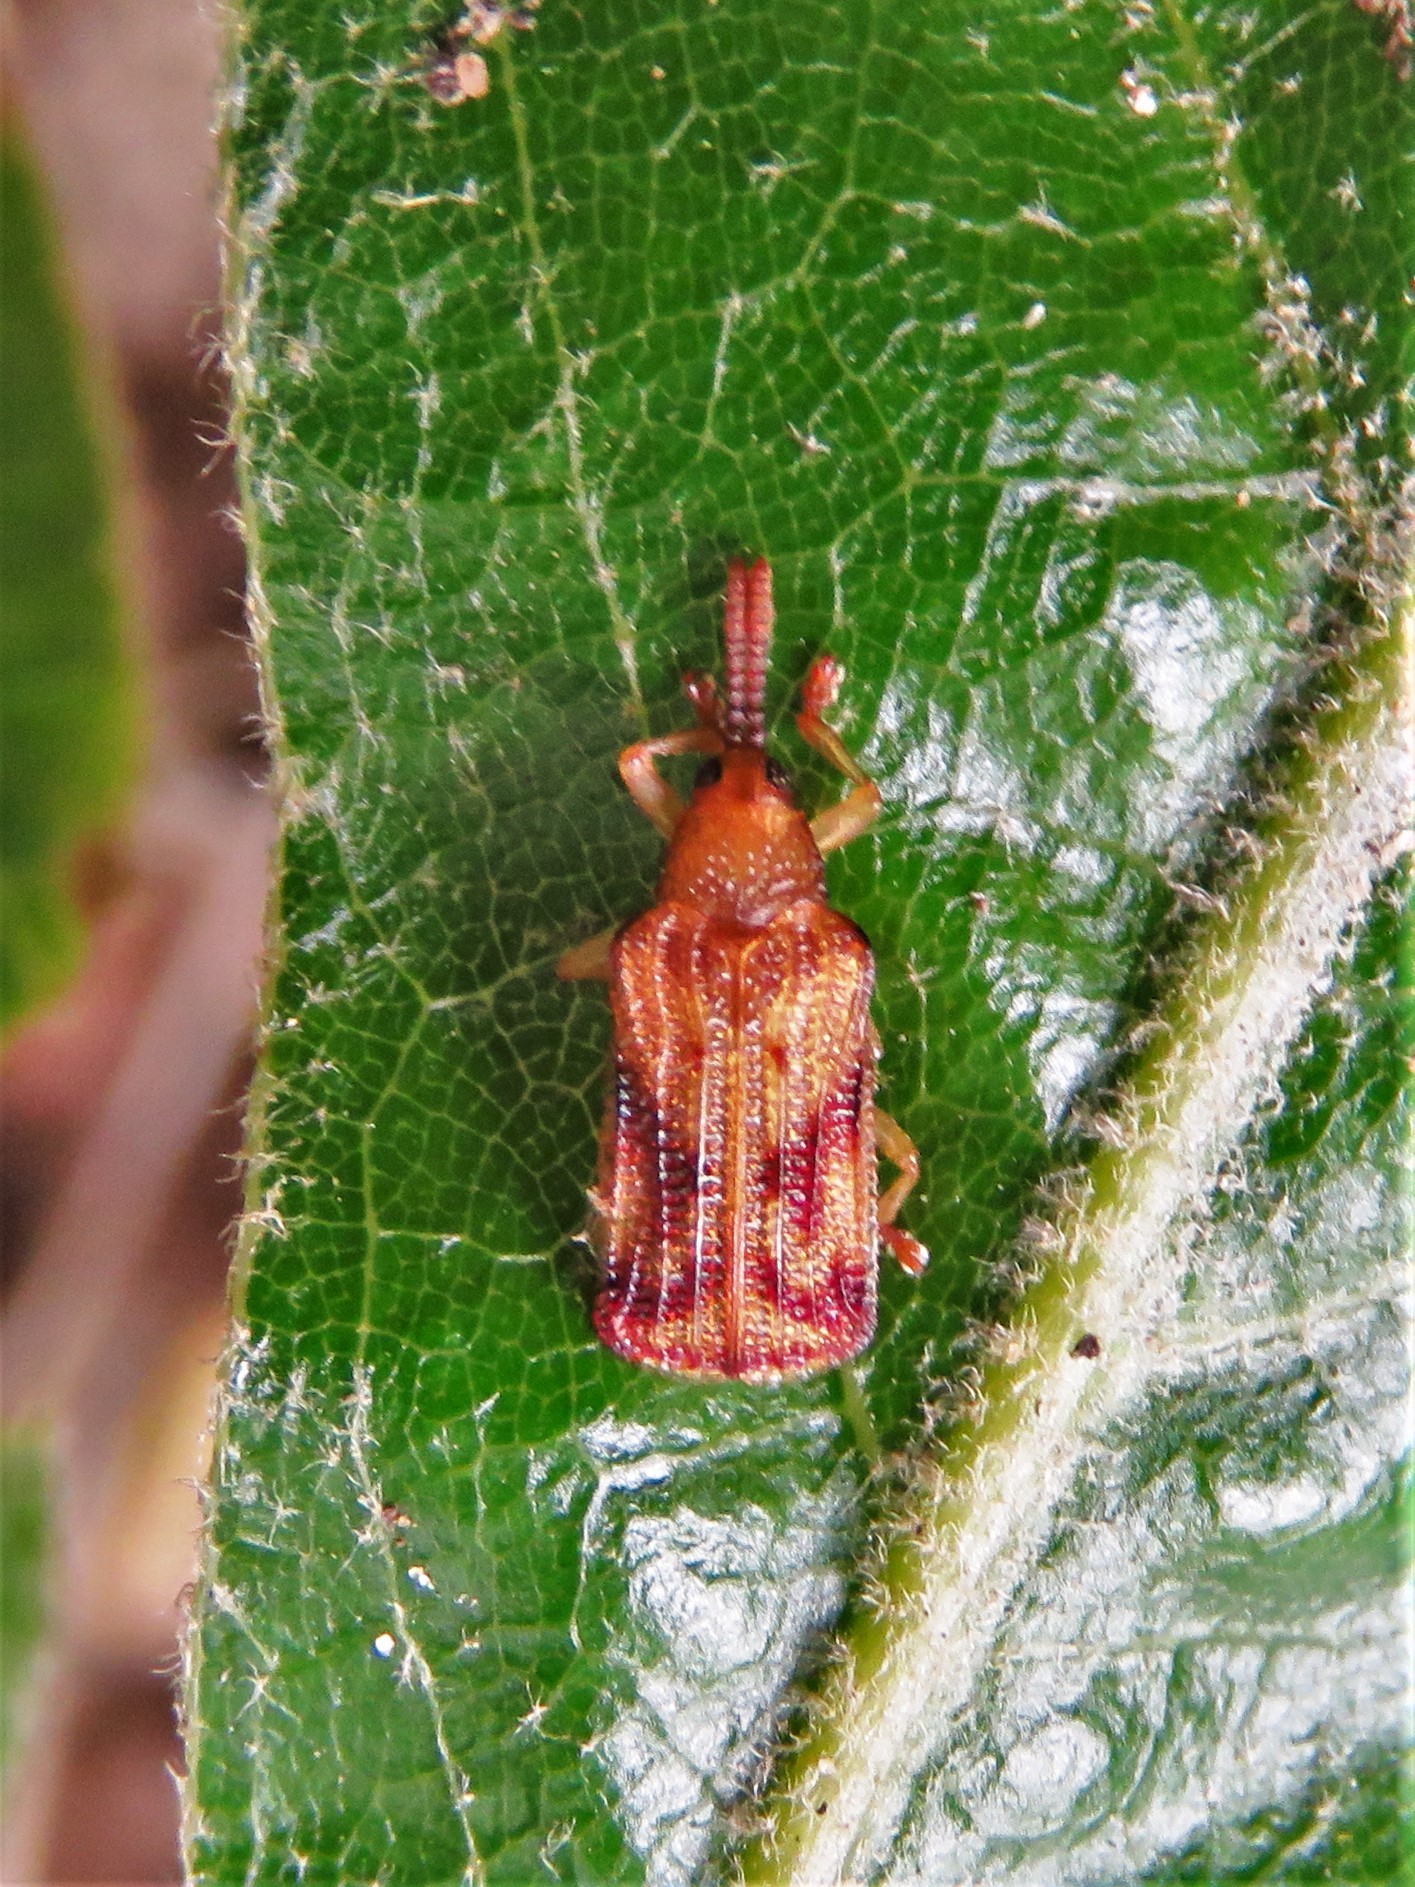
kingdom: Animalia
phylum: Arthropoda
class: Insecta
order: Coleoptera
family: Chrysomelidae
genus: Baliosus
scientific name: Baliosus nervosus
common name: Basswood leaf miner
